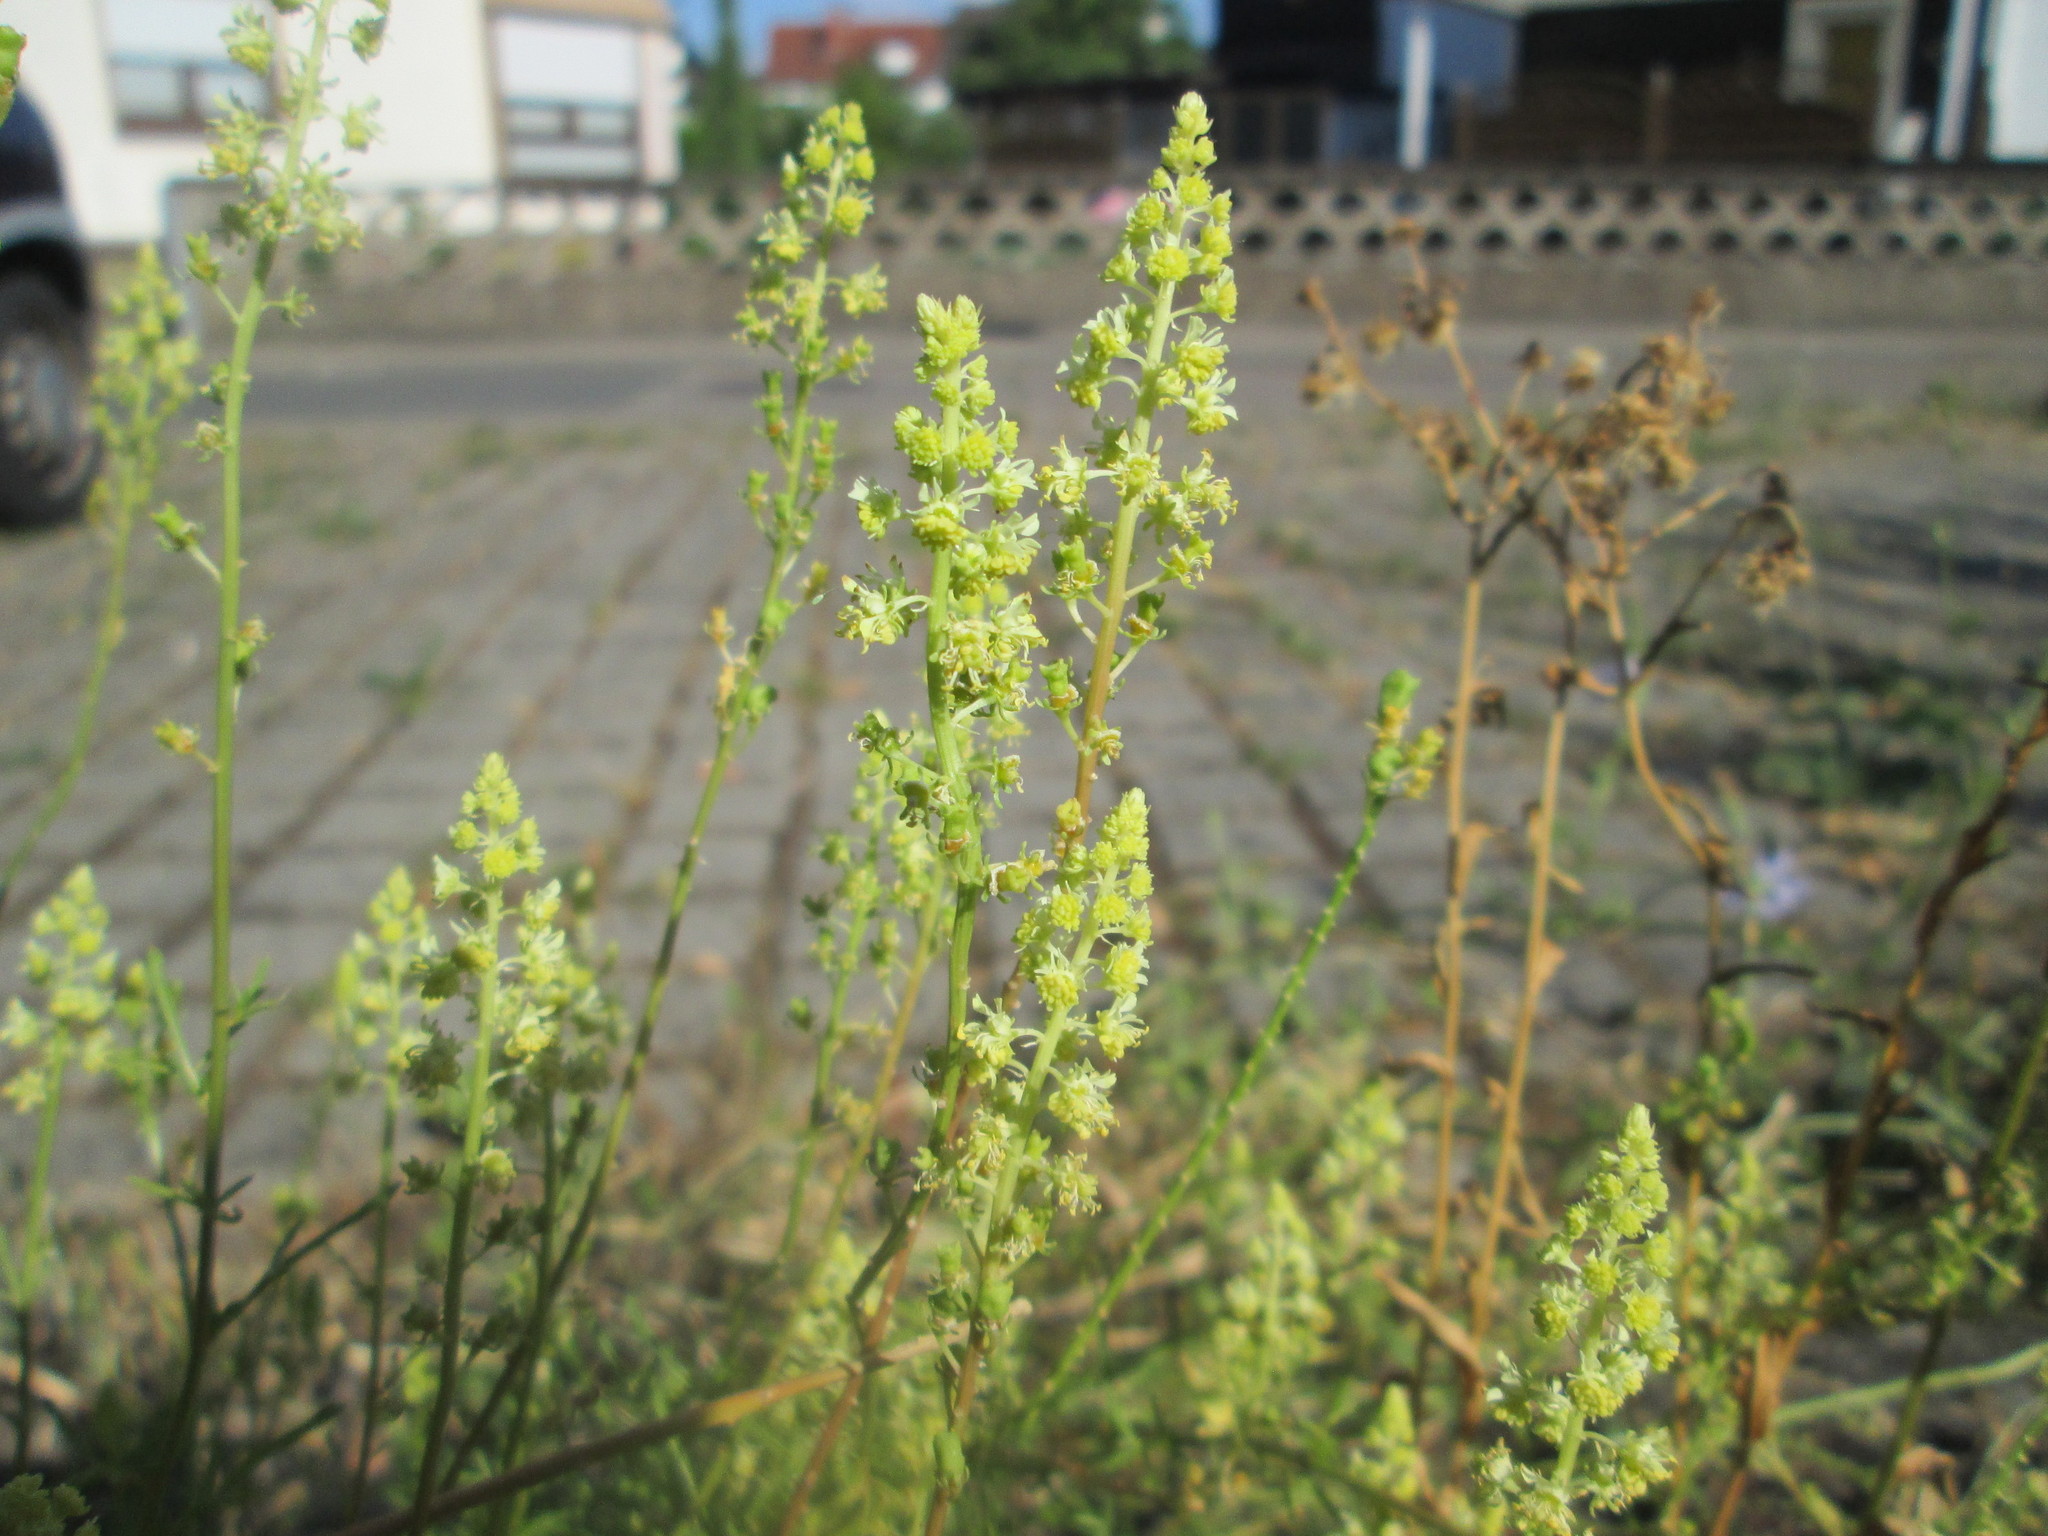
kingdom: Plantae
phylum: Tracheophyta
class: Magnoliopsida
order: Brassicales
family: Resedaceae
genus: Reseda
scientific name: Reseda lutea
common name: Wild mignonette
